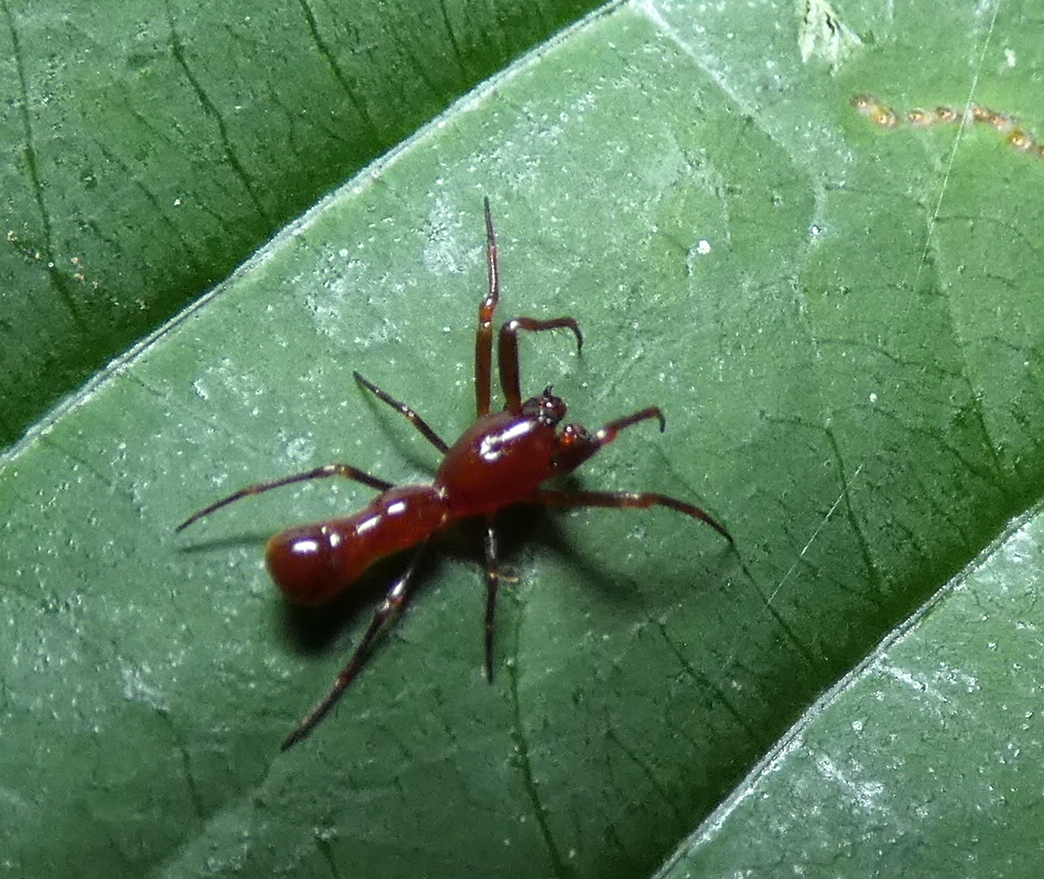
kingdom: Animalia
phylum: Arthropoda
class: Arachnida
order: Araneae
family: Araneidae
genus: Micrathena
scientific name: Micrathena schreibersi
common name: Orb weavers
